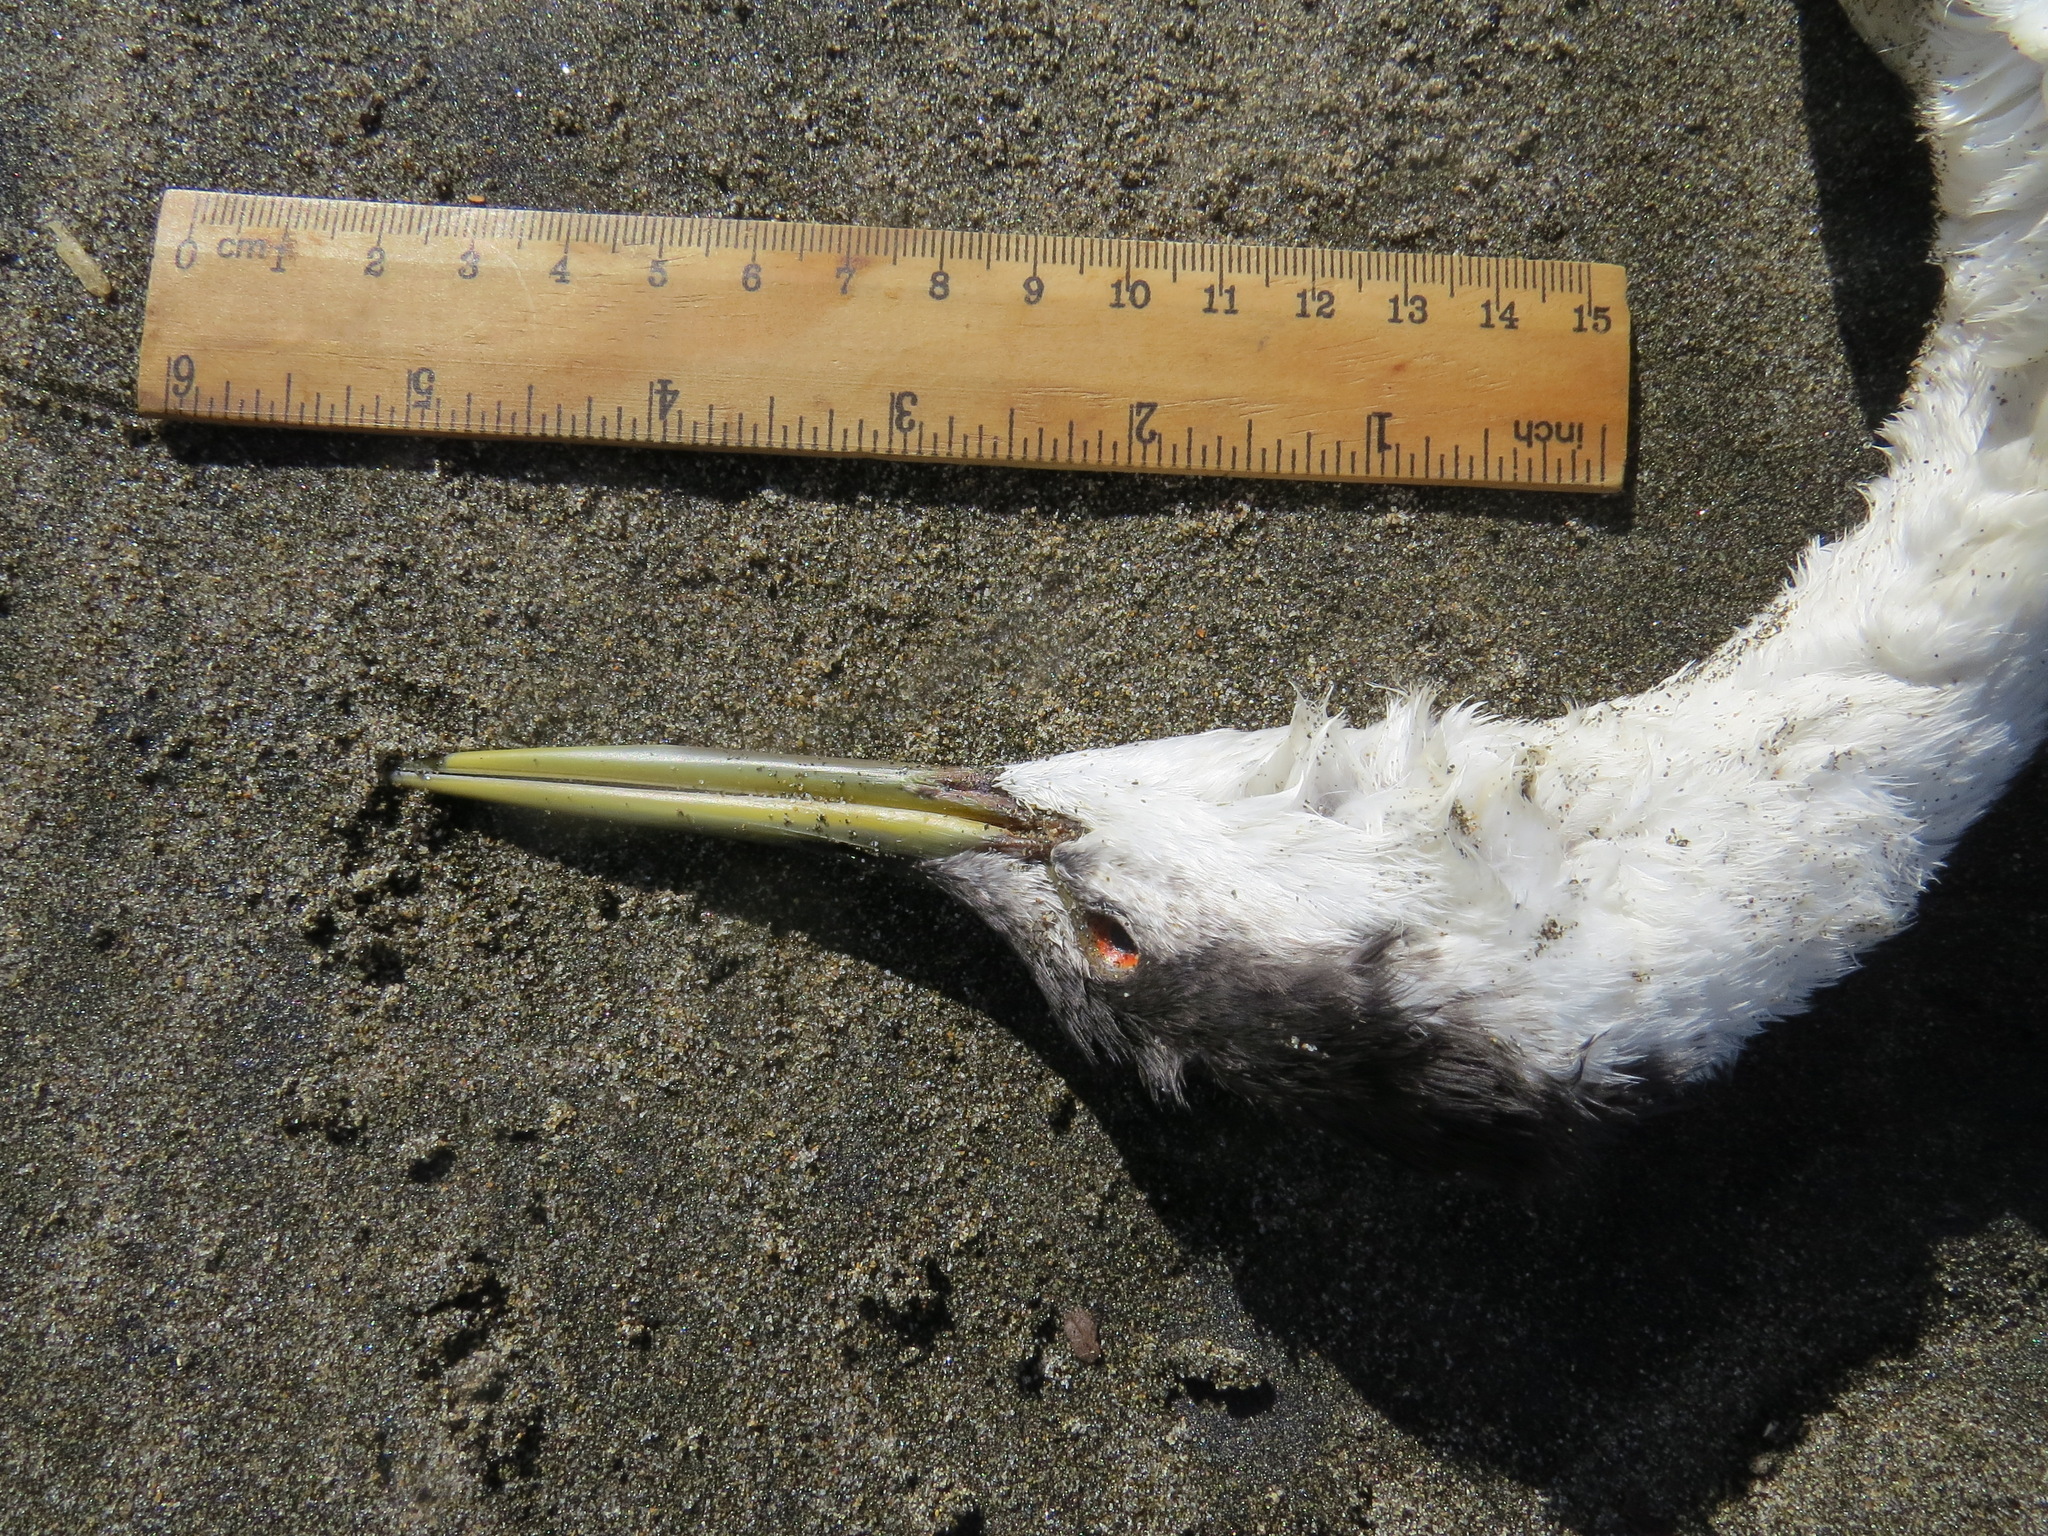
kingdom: Animalia
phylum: Chordata
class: Aves
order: Podicipediformes
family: Podicipedidae
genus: Aechmophorus
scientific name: Aechmophorus occidentalis
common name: Western grebe
